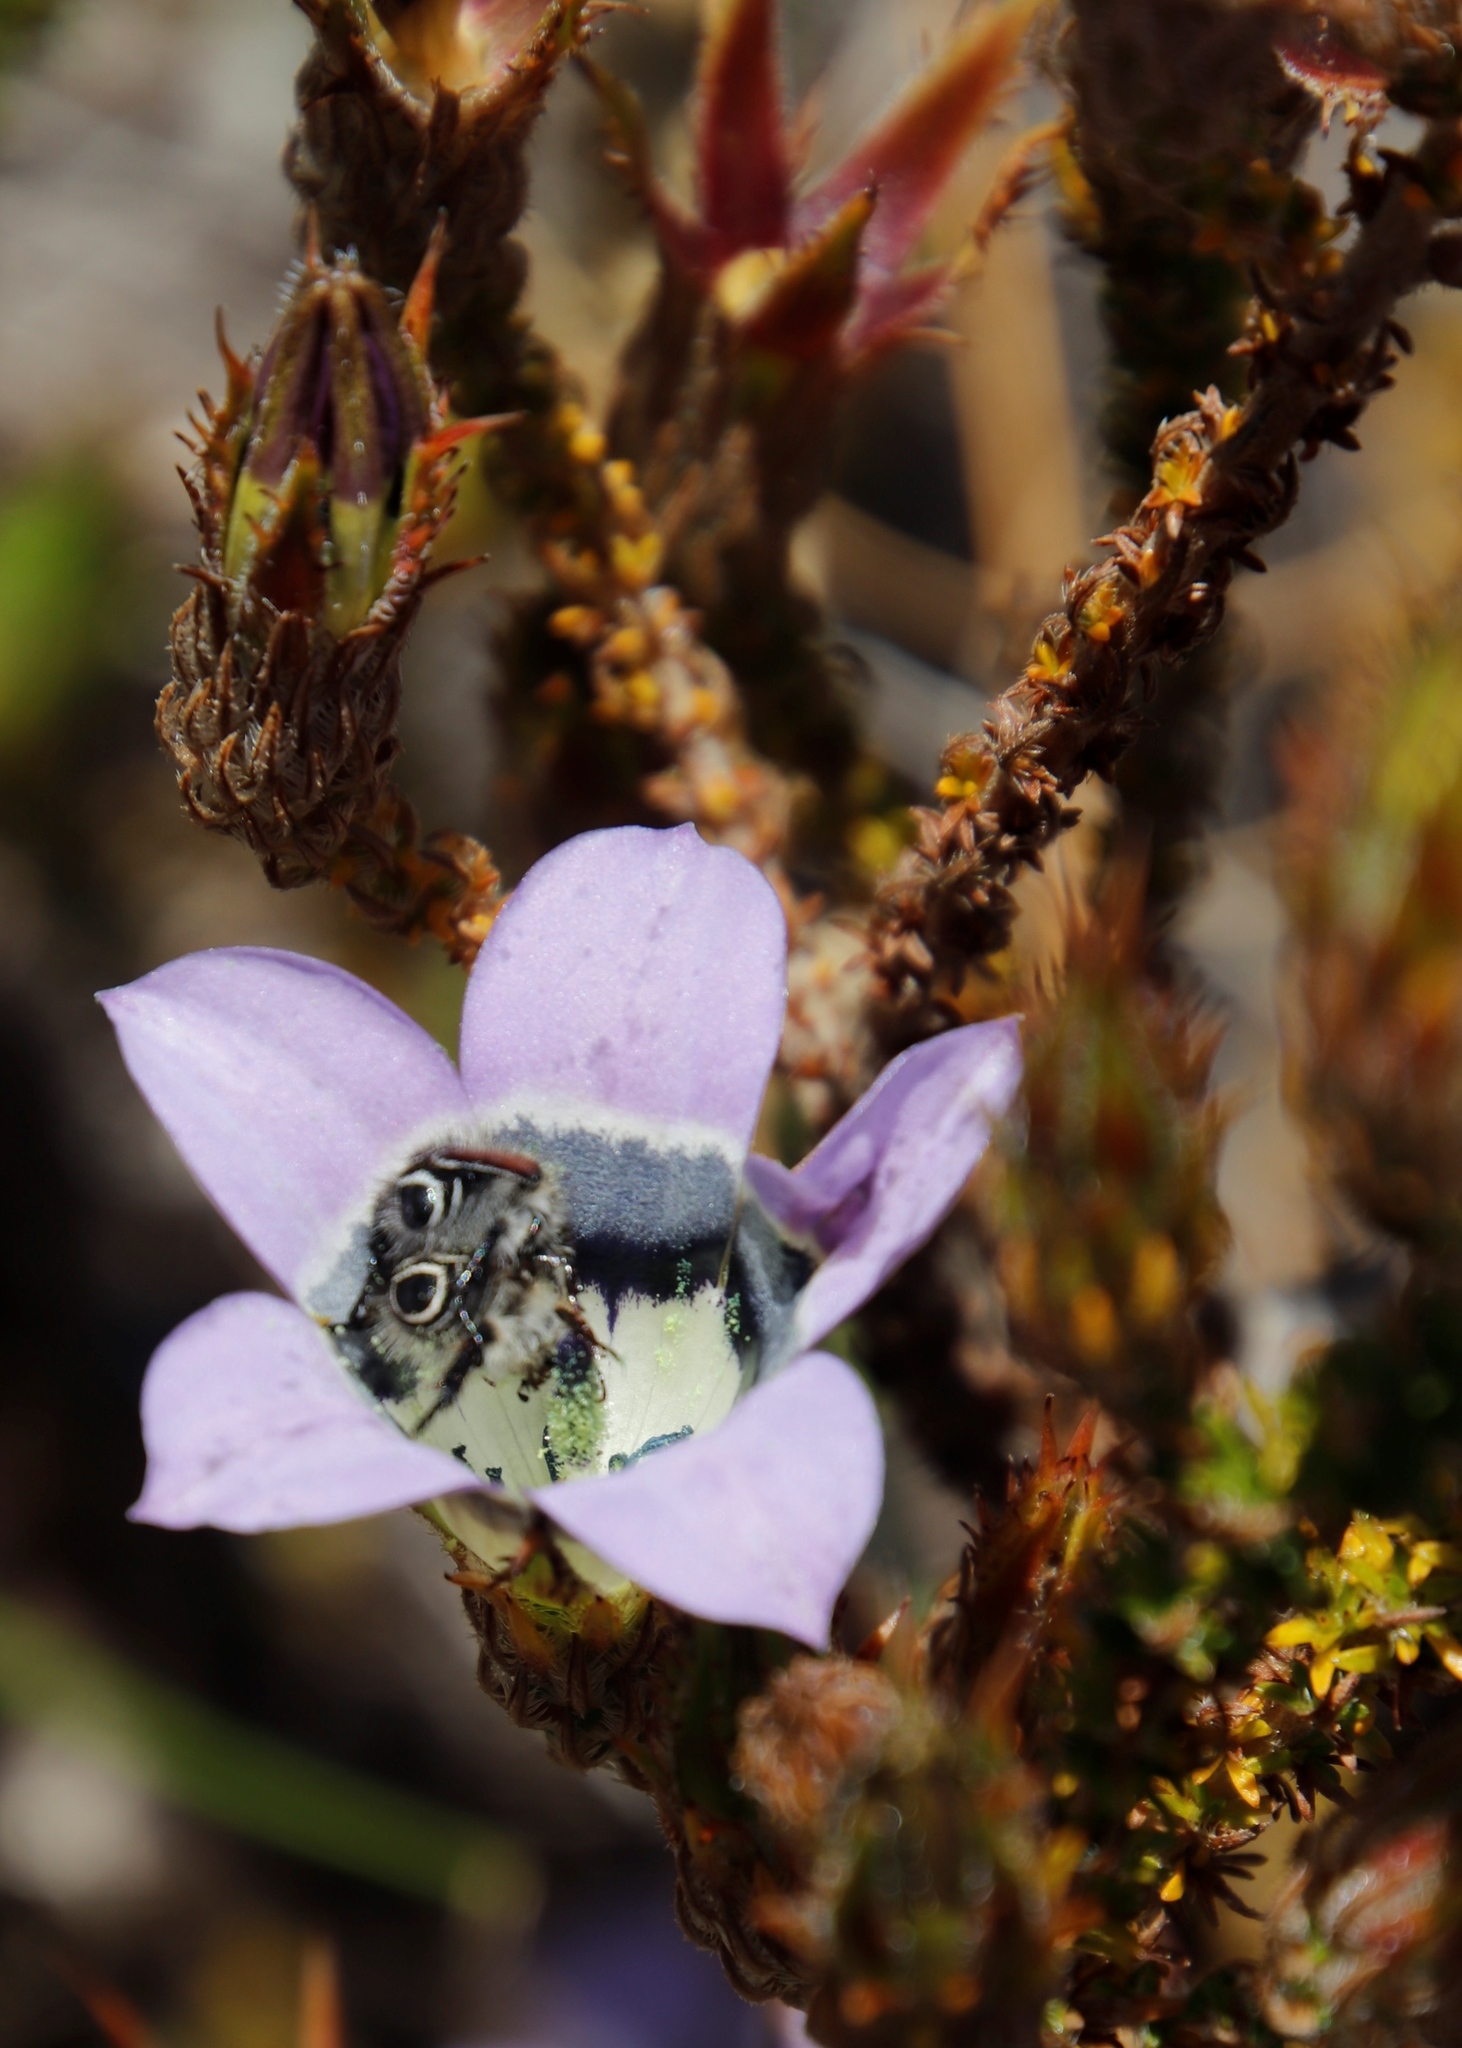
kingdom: Plantae
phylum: Tracheophyta
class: Magnoliopsida
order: Asterales
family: Campanulaceae
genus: Roella
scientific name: Roella ciliata
